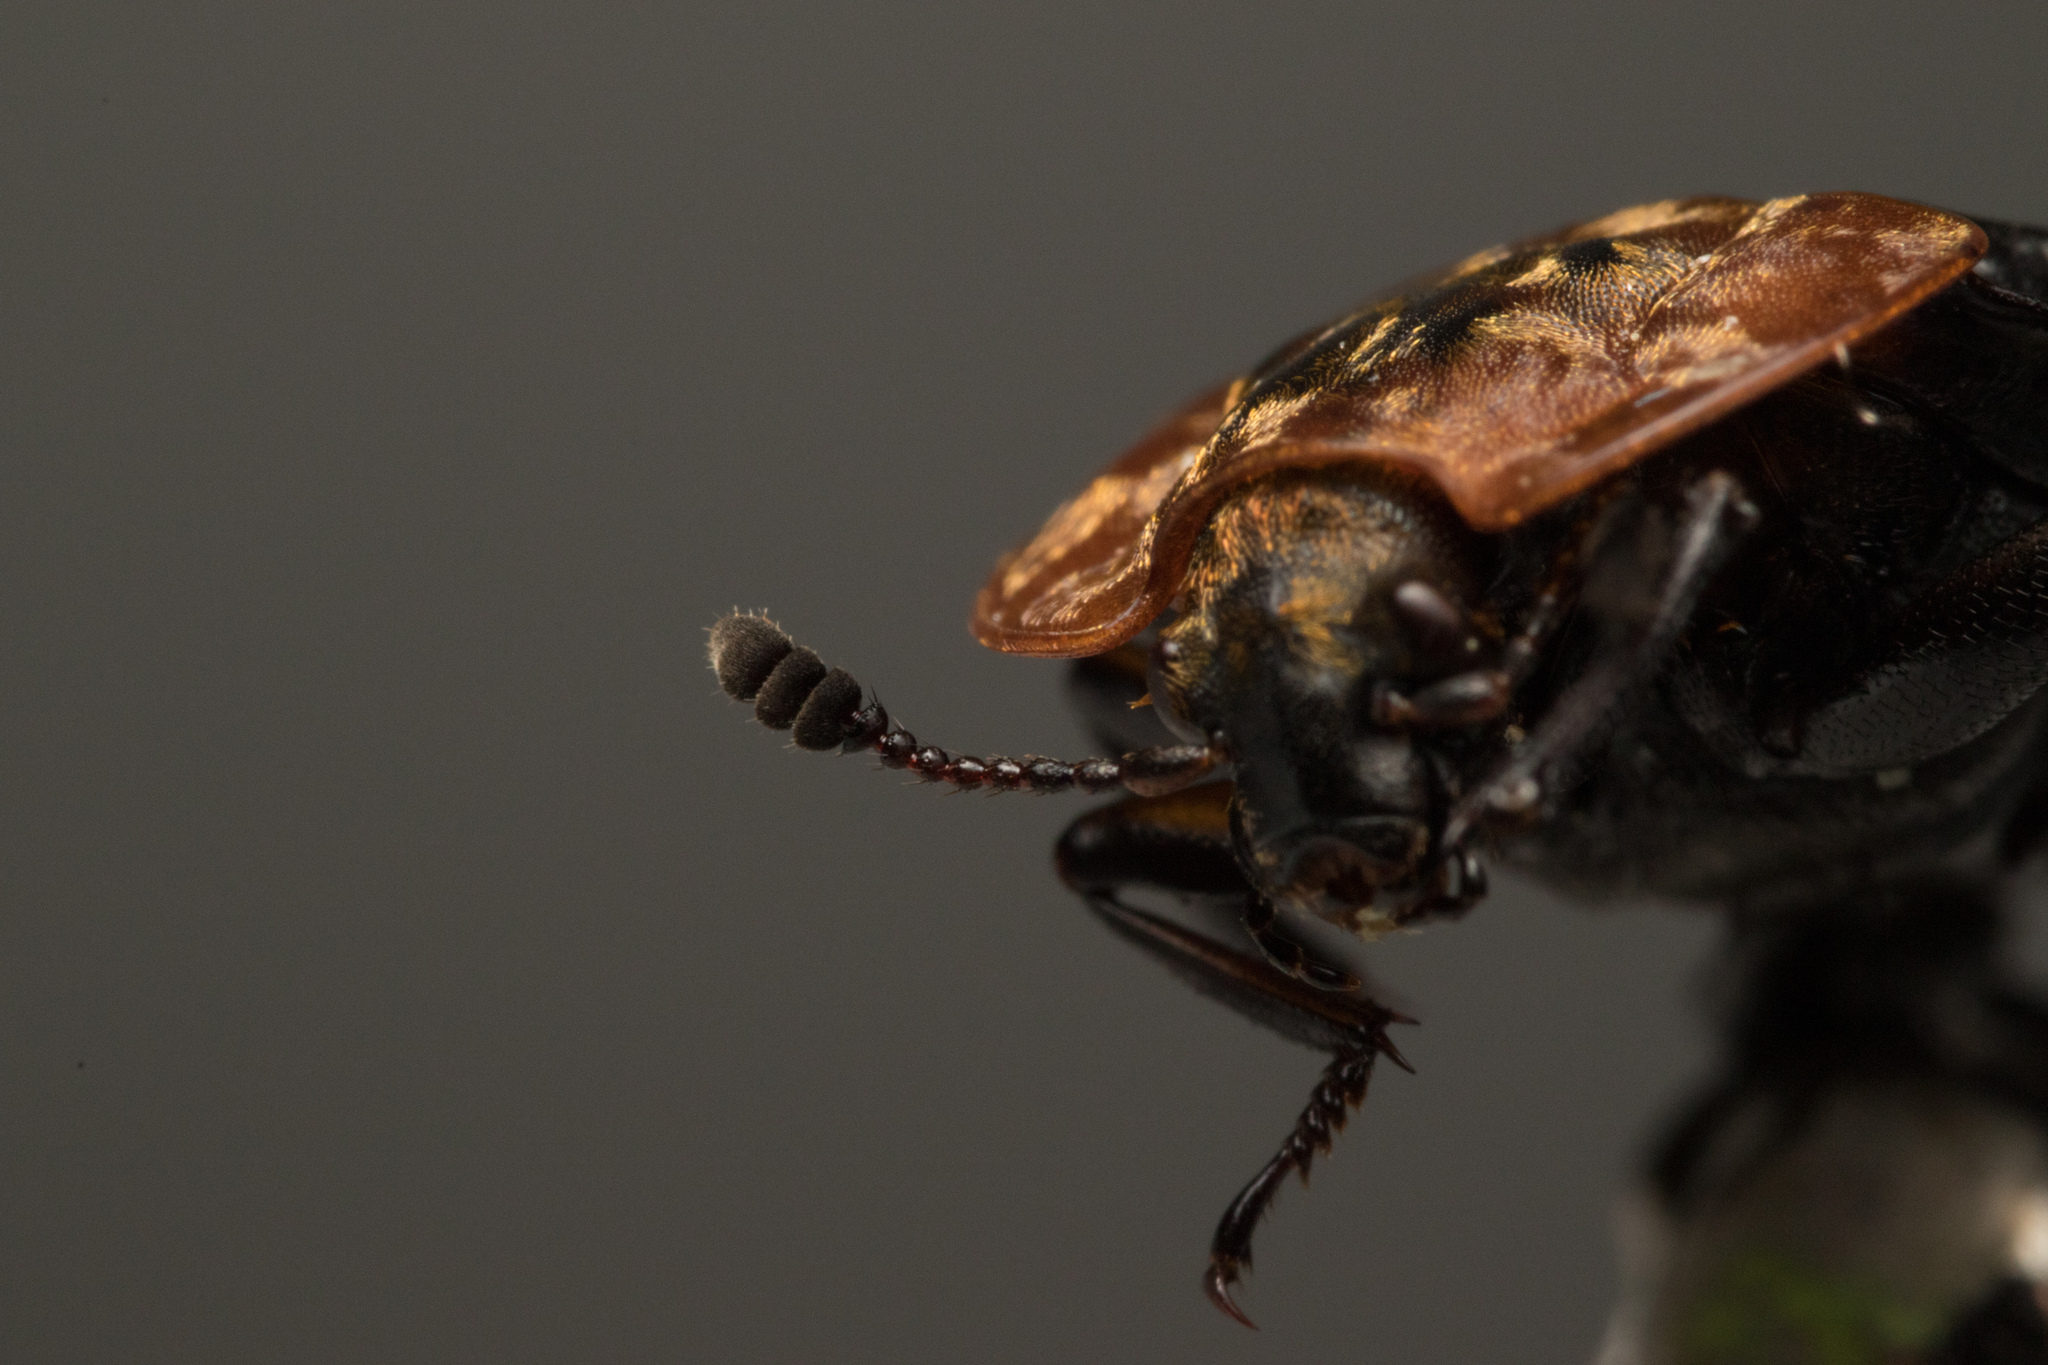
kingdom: Animalia
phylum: Arthropoda
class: Insecta
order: Coleoptera
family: Staphylinidae
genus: Oiceoptoma
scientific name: Oiceoptoma thoracicum
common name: Red-breasted carrion beetle
